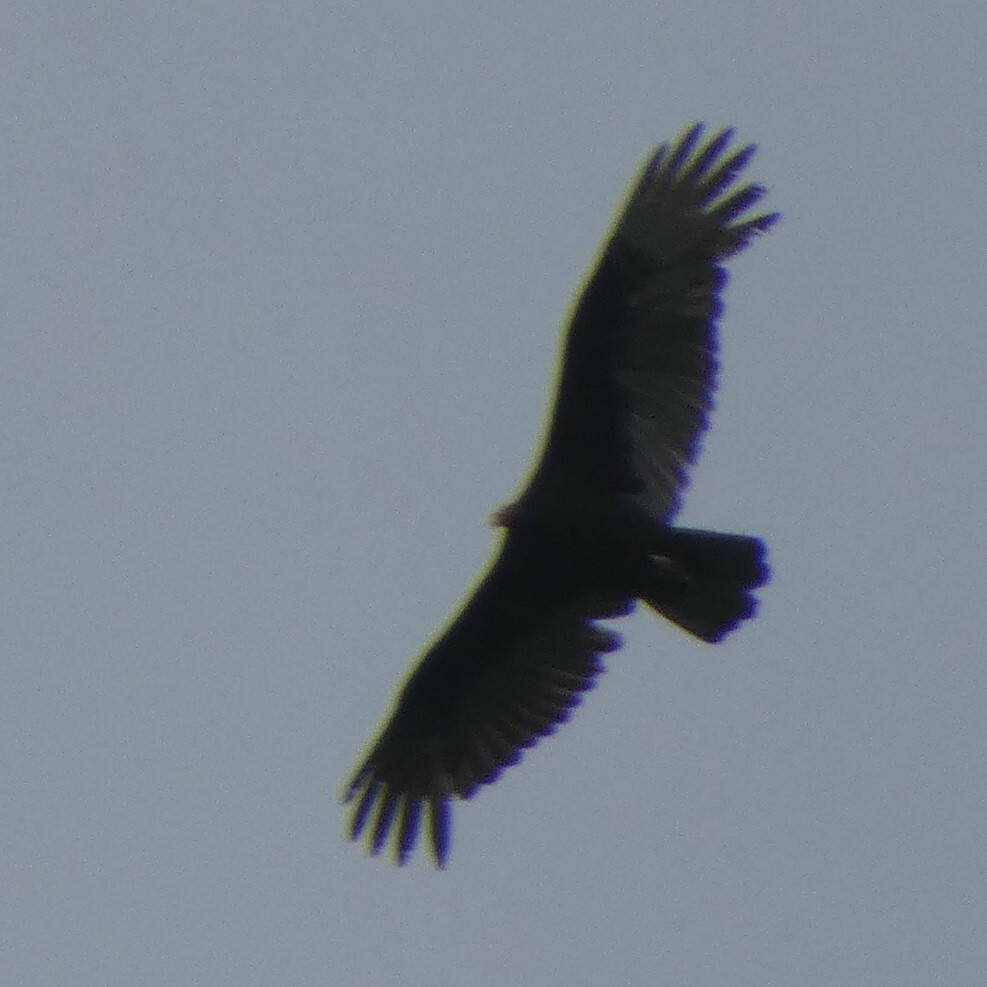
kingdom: Animalia
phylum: Chordata
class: Aves
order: Accipitriformes
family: Cathartidae
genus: Cathartes
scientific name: Cathartes aura
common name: Turkey vulture
